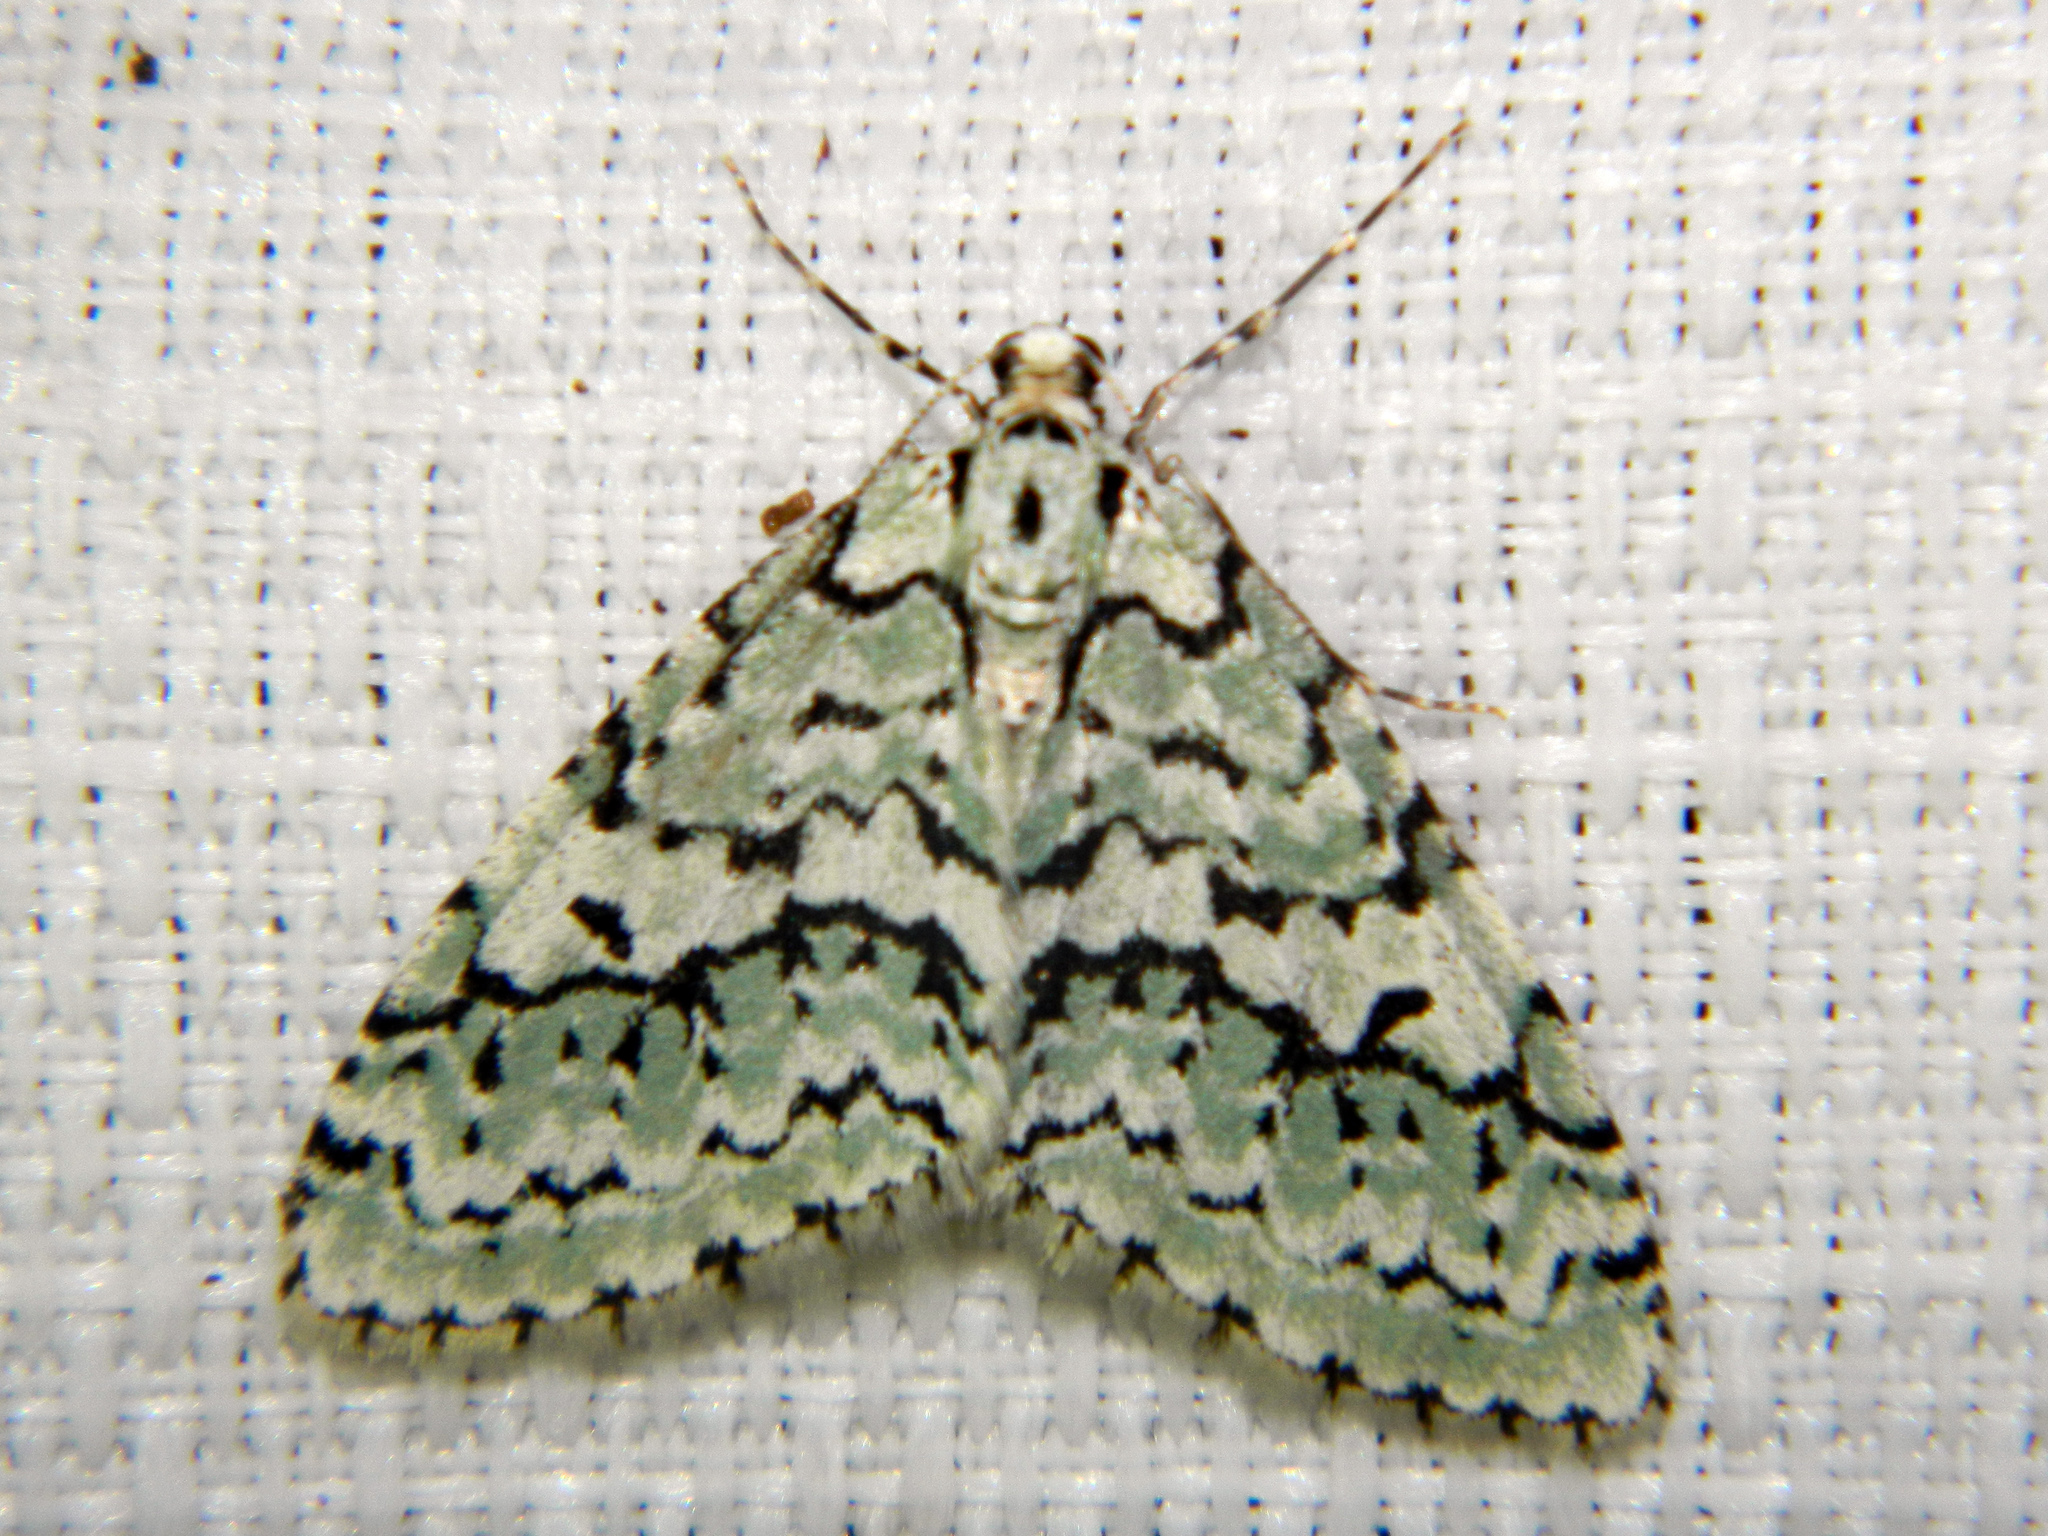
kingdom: Animalia
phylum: Arthropoda
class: Insecta
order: Lepidoptera
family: Geometridae
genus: Cladara
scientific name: Cladara atroliturata
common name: Scribbler
